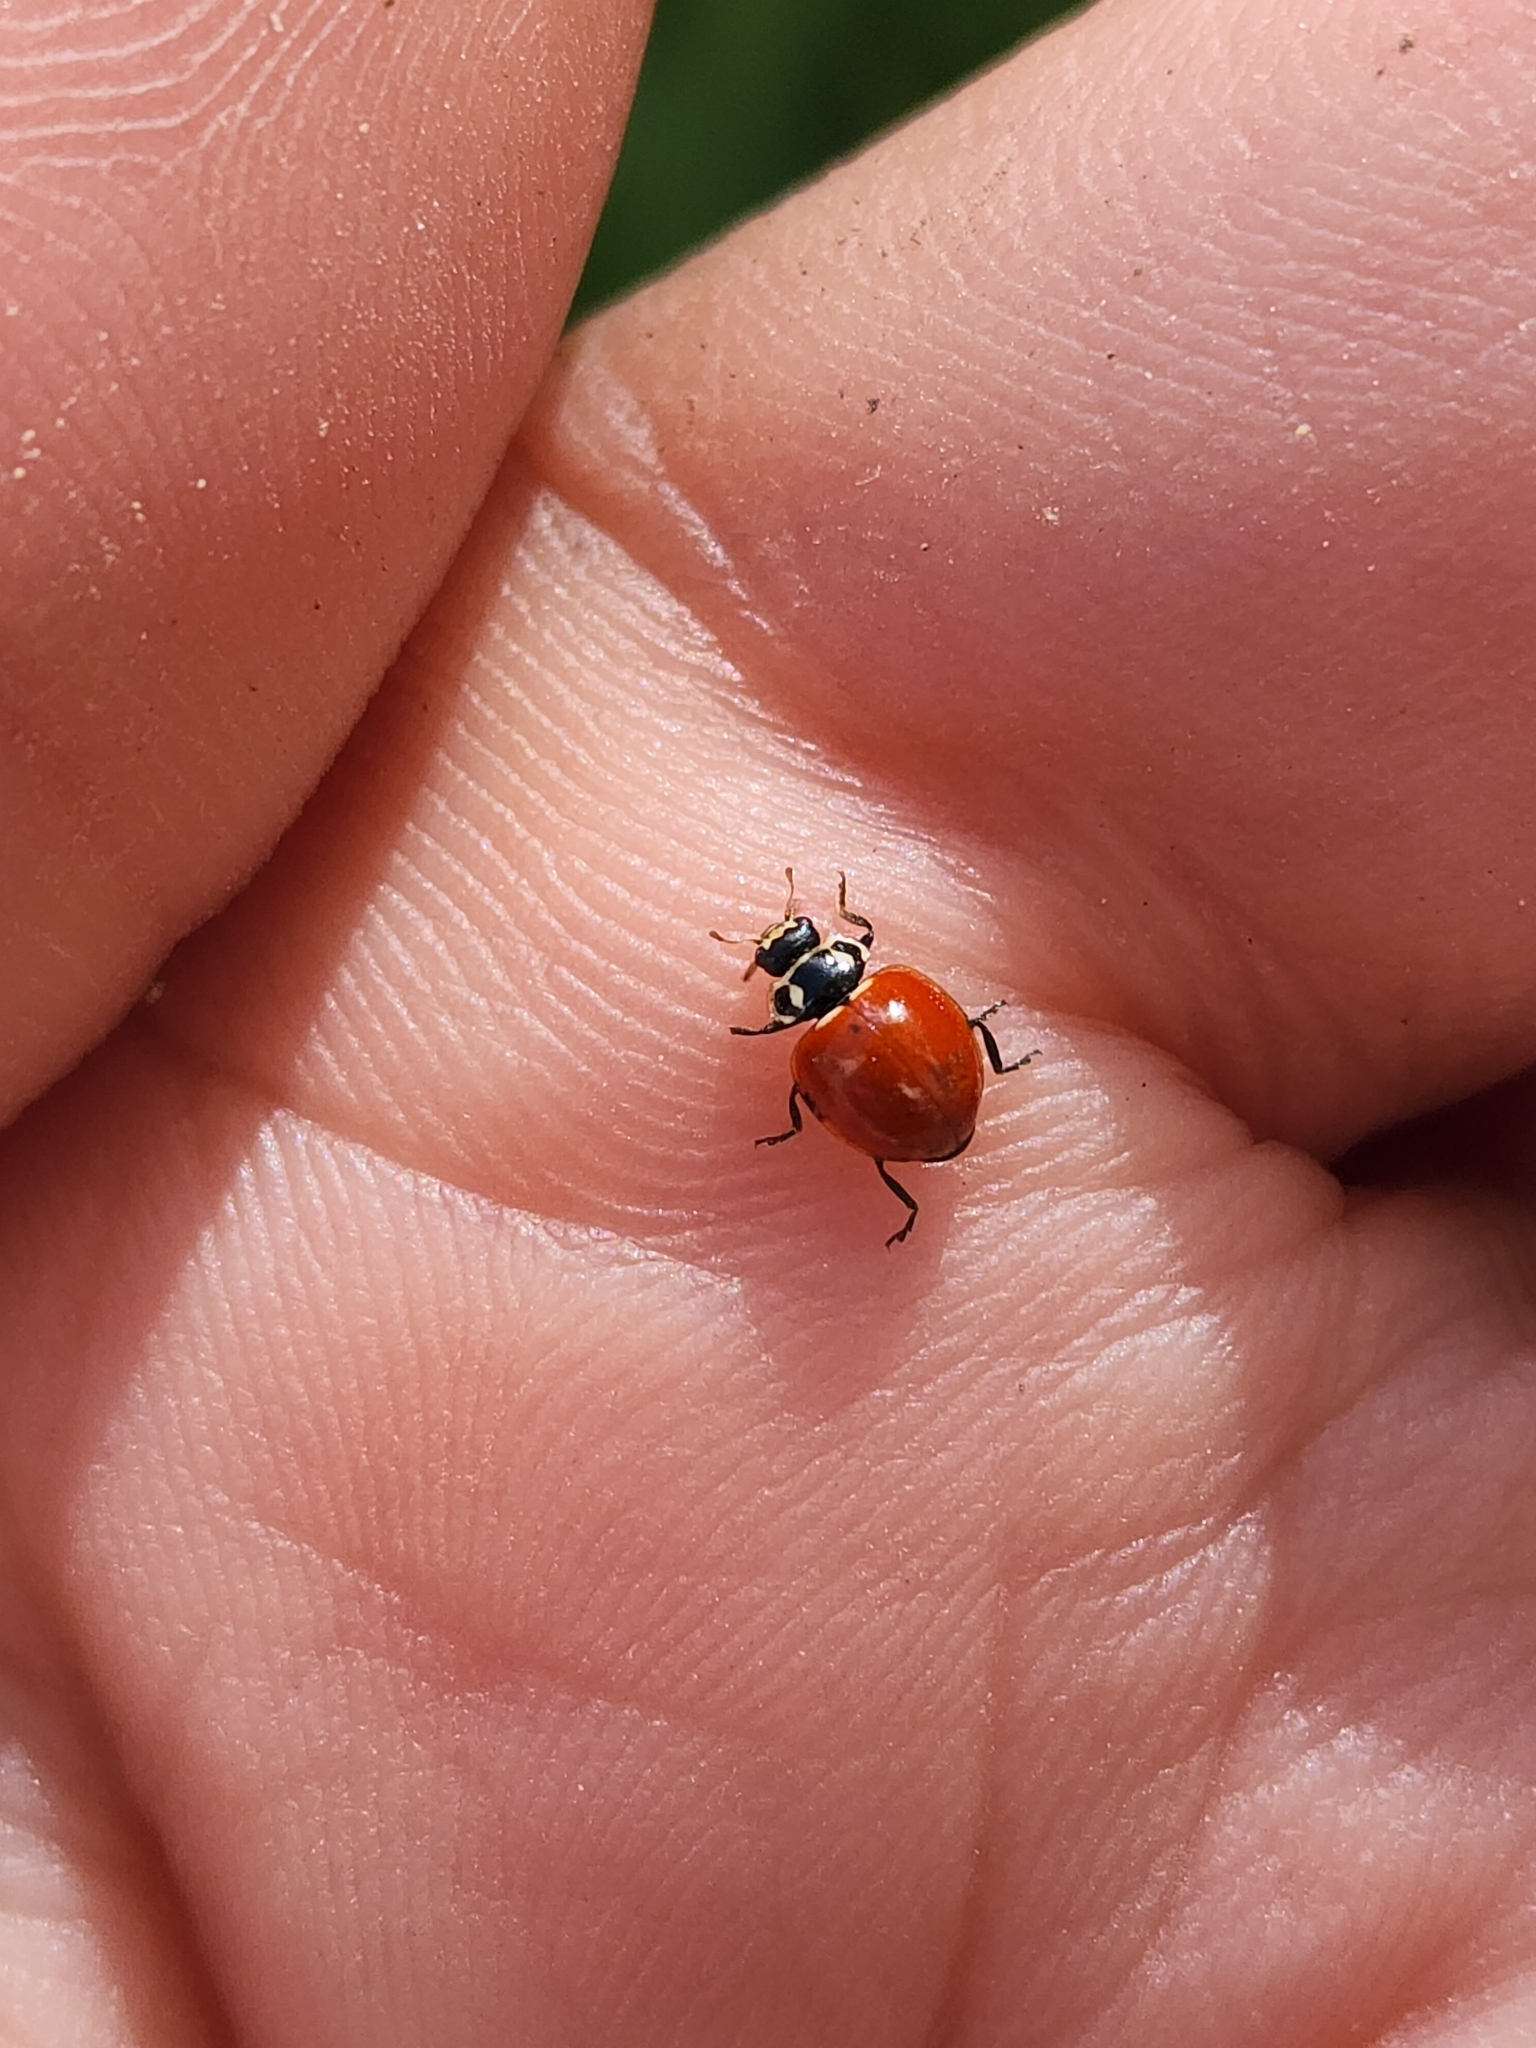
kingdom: Animalia
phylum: Arthropoda
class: Insecta
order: Coleoptera
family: Coccinellidae
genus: Cycloneda
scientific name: Cycloneda emarginata
